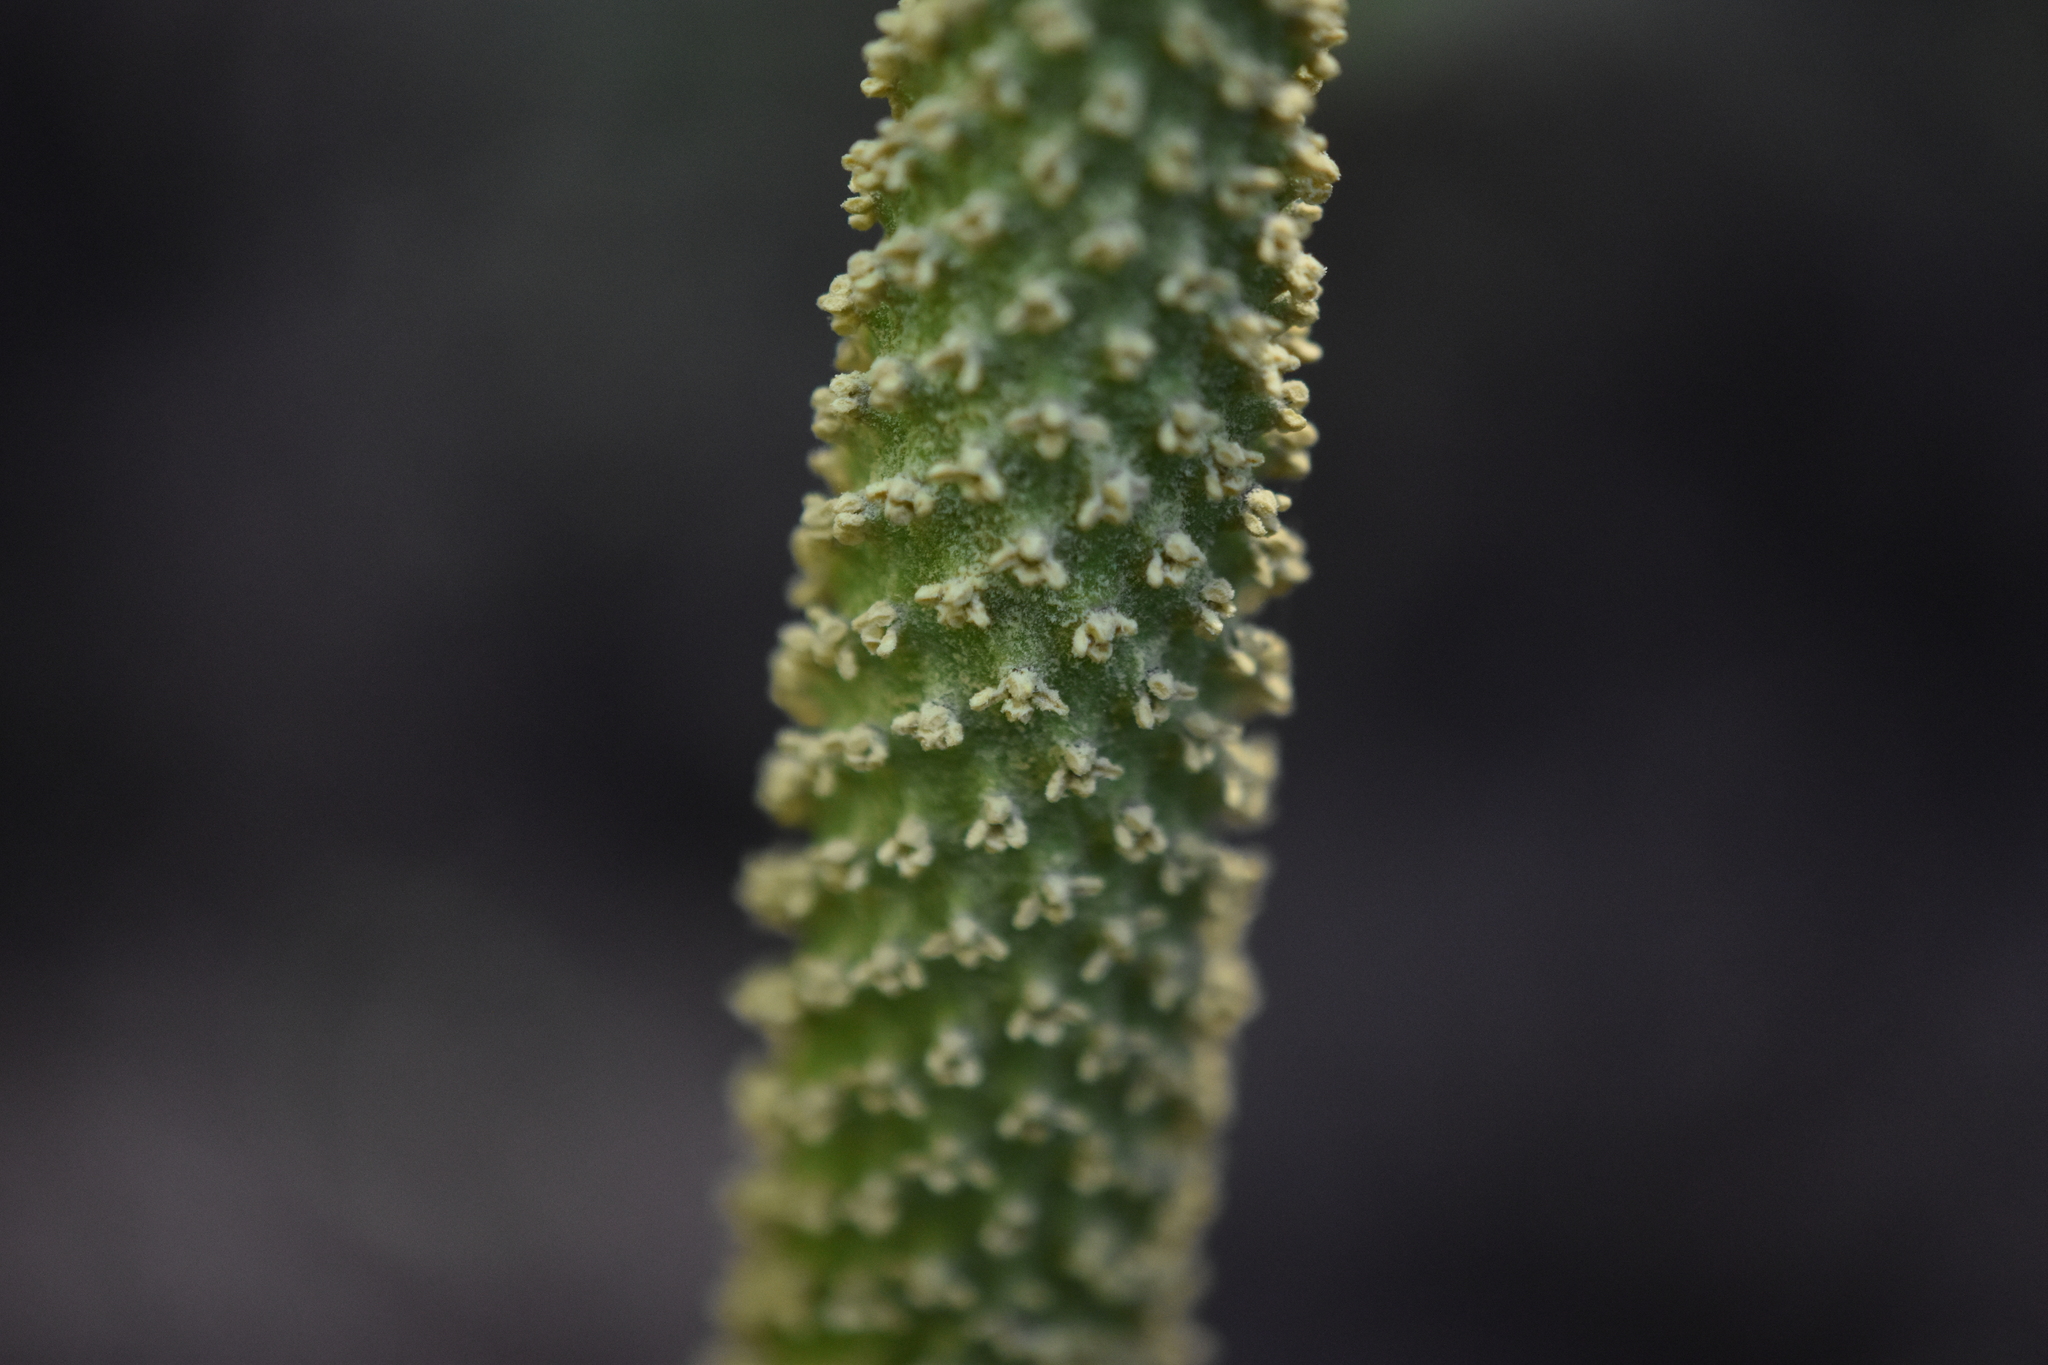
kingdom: Plantae
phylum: Tracheophyta
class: Liliopsida
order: Alismatales
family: Araceae
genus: Lysichiton
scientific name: Lysichiton americanus
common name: American skunk cabbage
